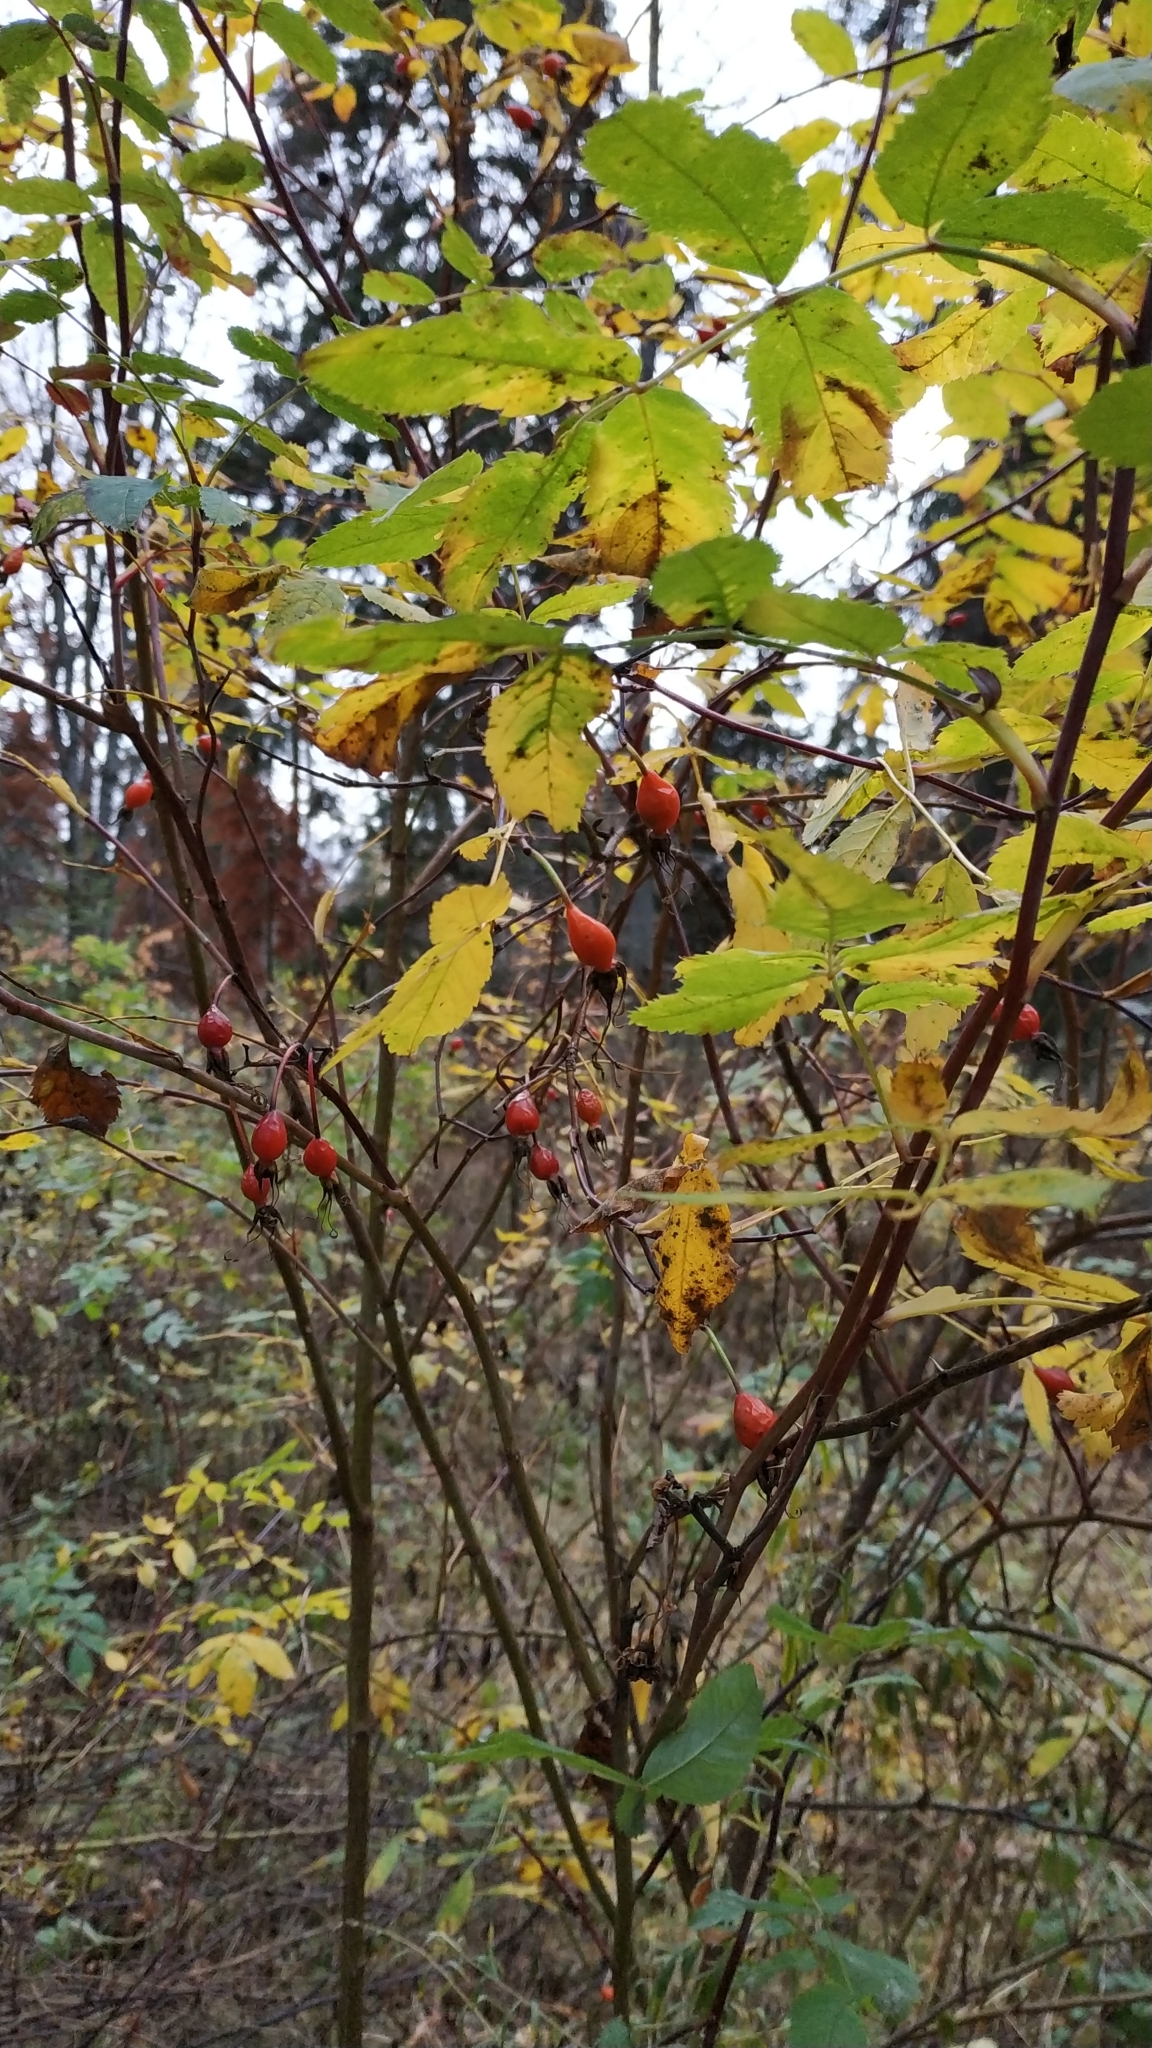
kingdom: Plantae
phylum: Tracheophyta
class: Magnoliopsida
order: Rosales
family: Rosaceae
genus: Rosa
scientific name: Rosa majalis
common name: Cinnamon rose
